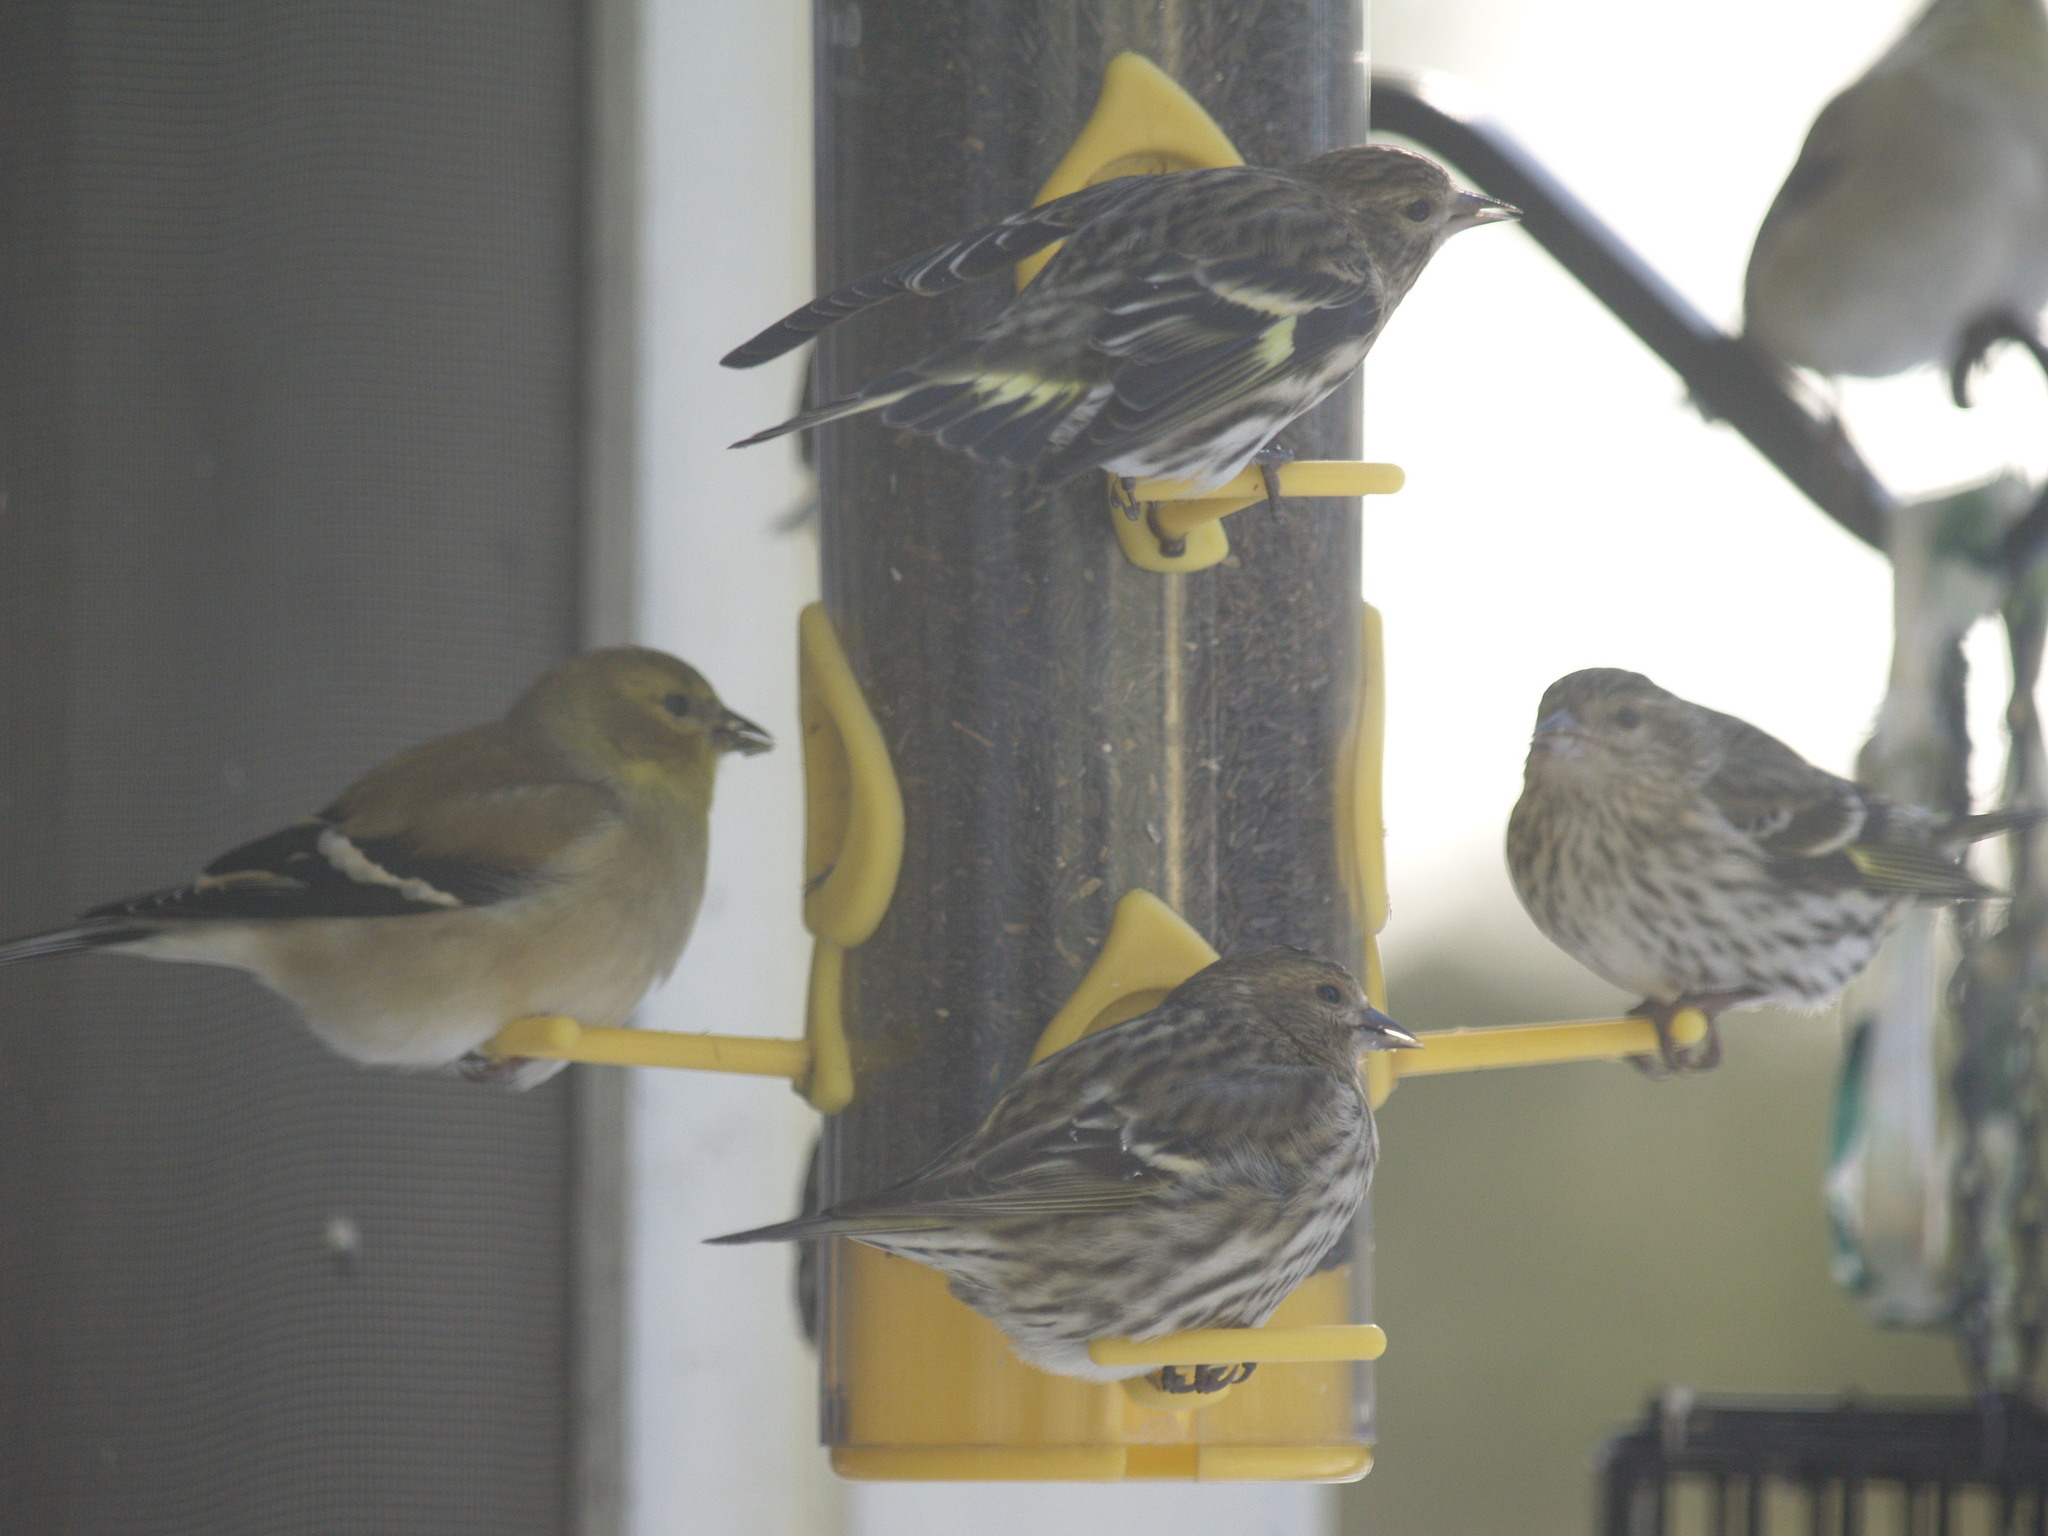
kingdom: Animalia
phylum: Chordata
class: Aves
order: Passeriformes
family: Fringillidae
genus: Spinus
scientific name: Spinus tristis
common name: American goldfinch
